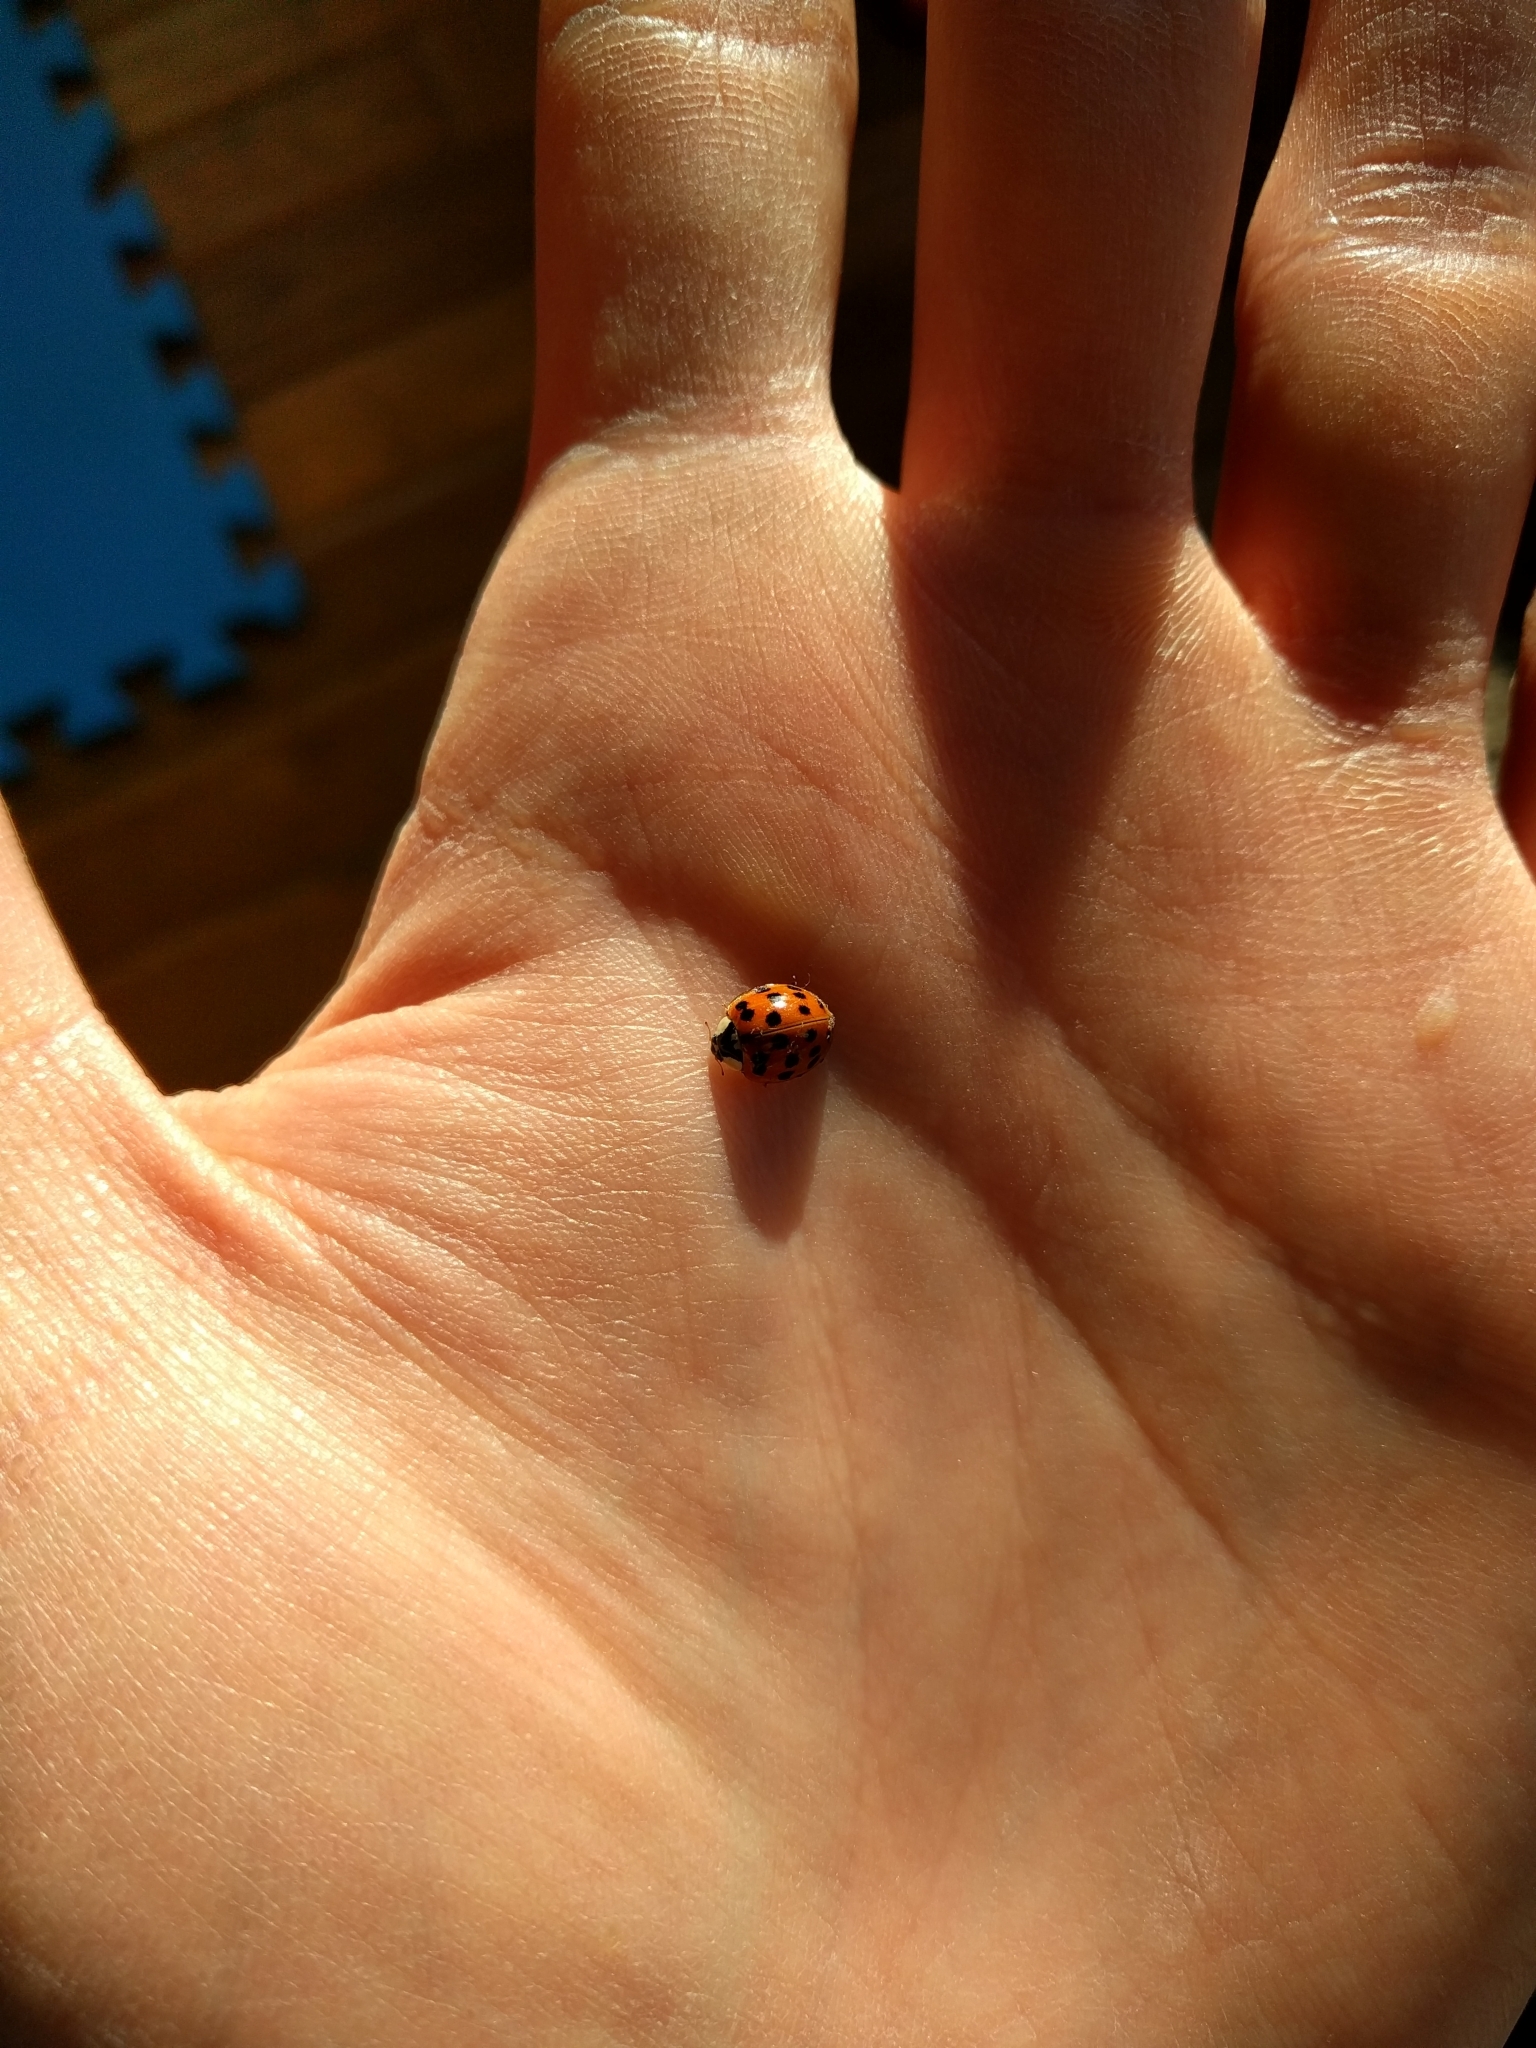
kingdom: Animalia
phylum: Arthropoda
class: Insecta
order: Coleoptera
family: Coccinellidae
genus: Harmonia
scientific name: Harmonia axyridis
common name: Harlequin ladybird
